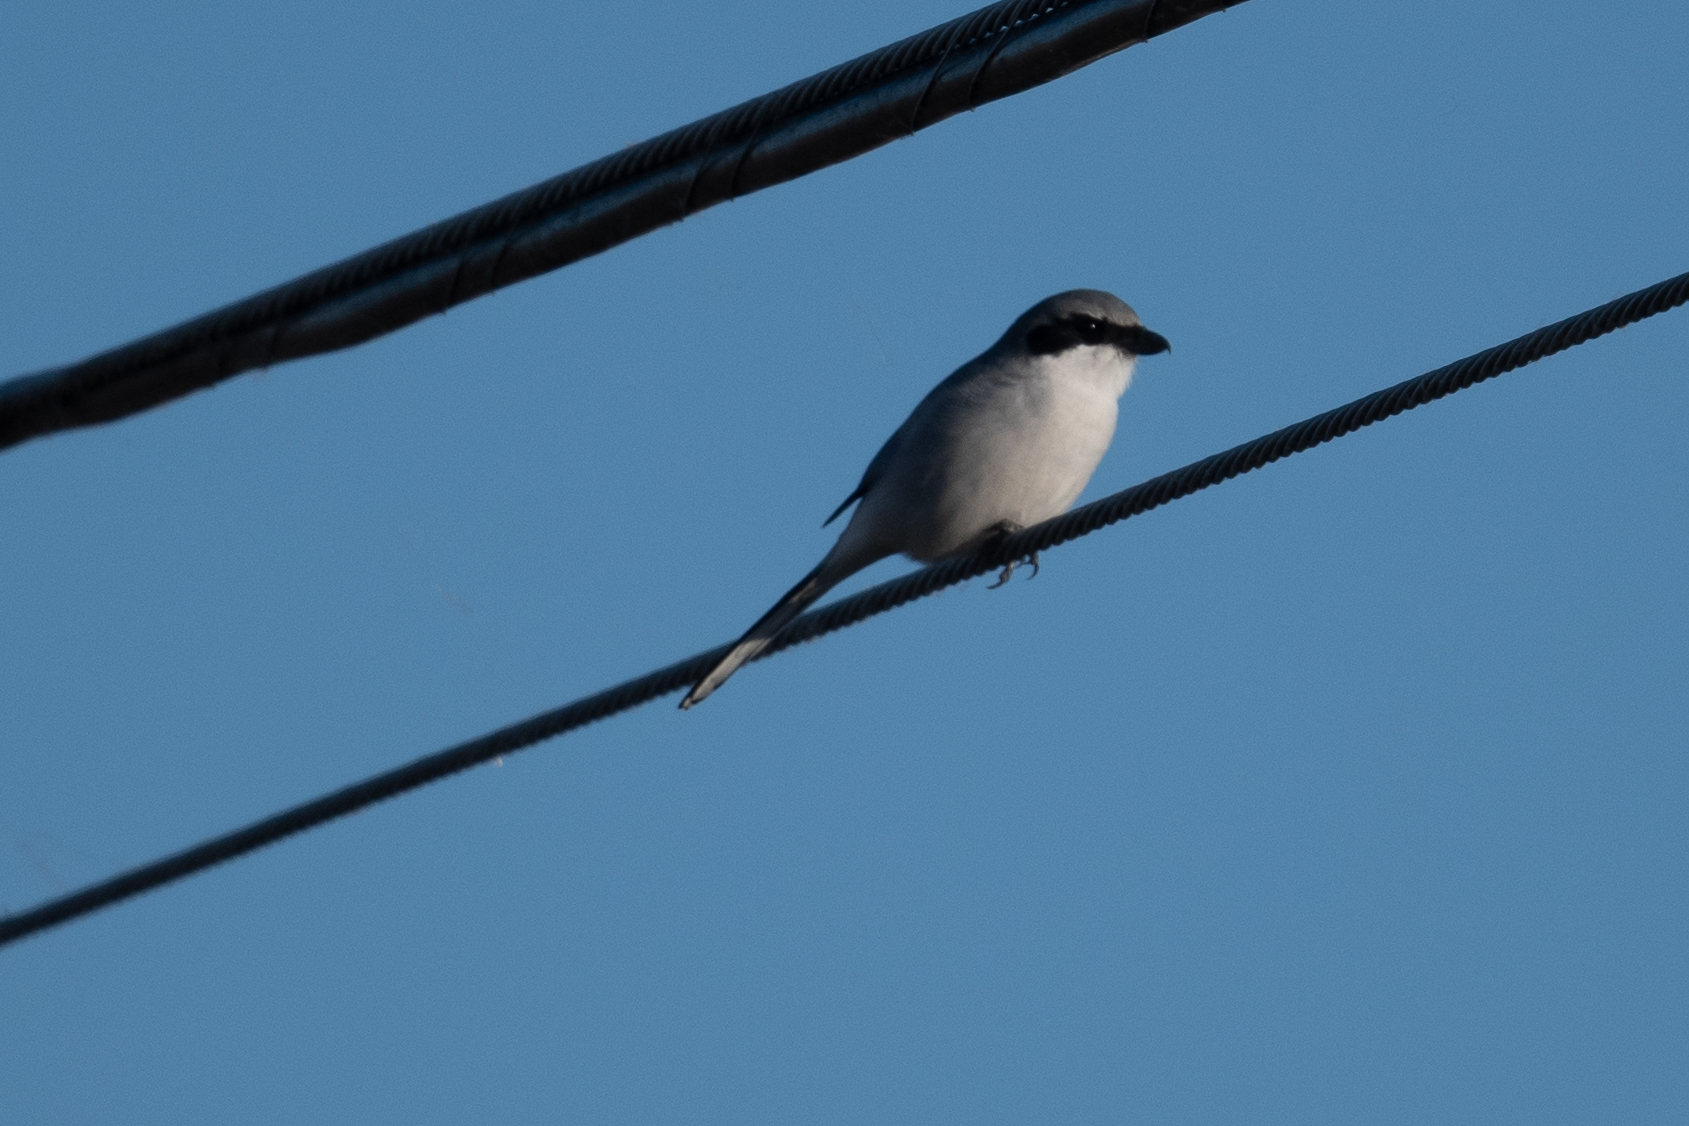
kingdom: Animalia
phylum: Chordata
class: Aves
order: Passeriformes
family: Laniidae
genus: Lanius
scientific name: Lanius ludovicianus
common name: Loggerhead shrike
